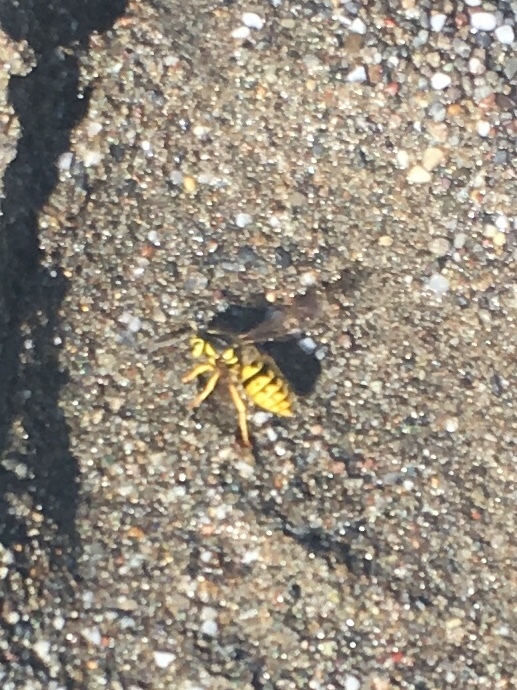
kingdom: Animalia
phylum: Arthropoda
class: Insecta
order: Hymenoptera
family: Vespidae
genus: Vespula
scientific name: Vespula pensylvanica
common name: Western yellowjacket
